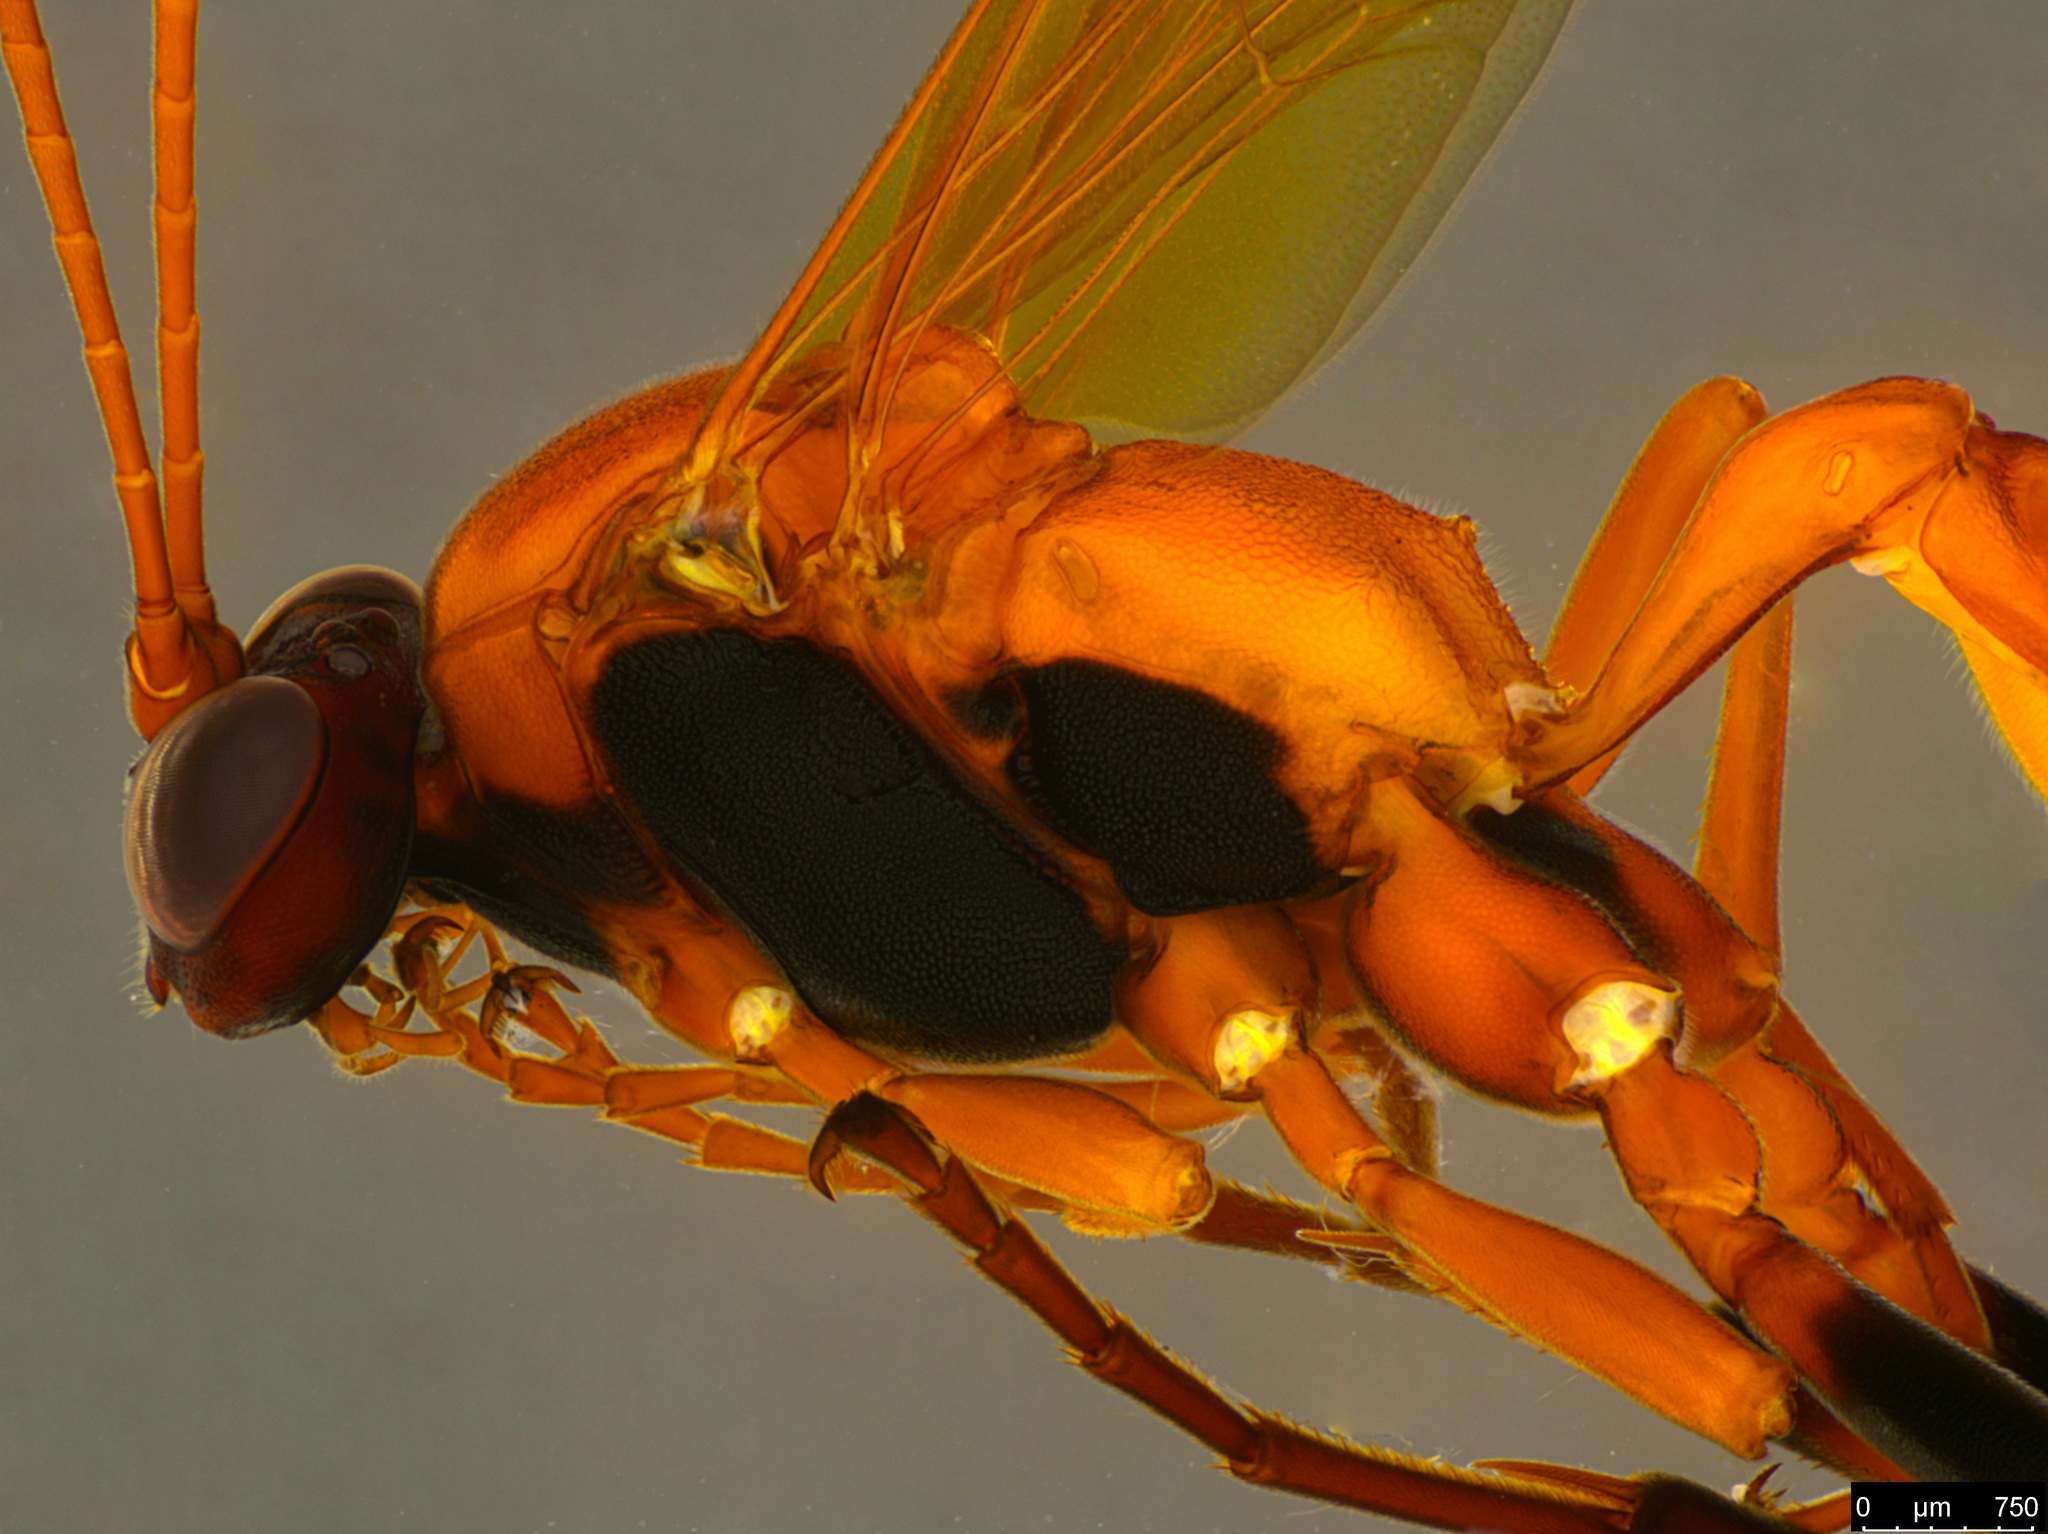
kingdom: Animalia
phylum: Arthropoda
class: Insecta
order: Hymenoptera
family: Ichneumonidae
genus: Ctenochares
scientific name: Ctenochares bicolorus
